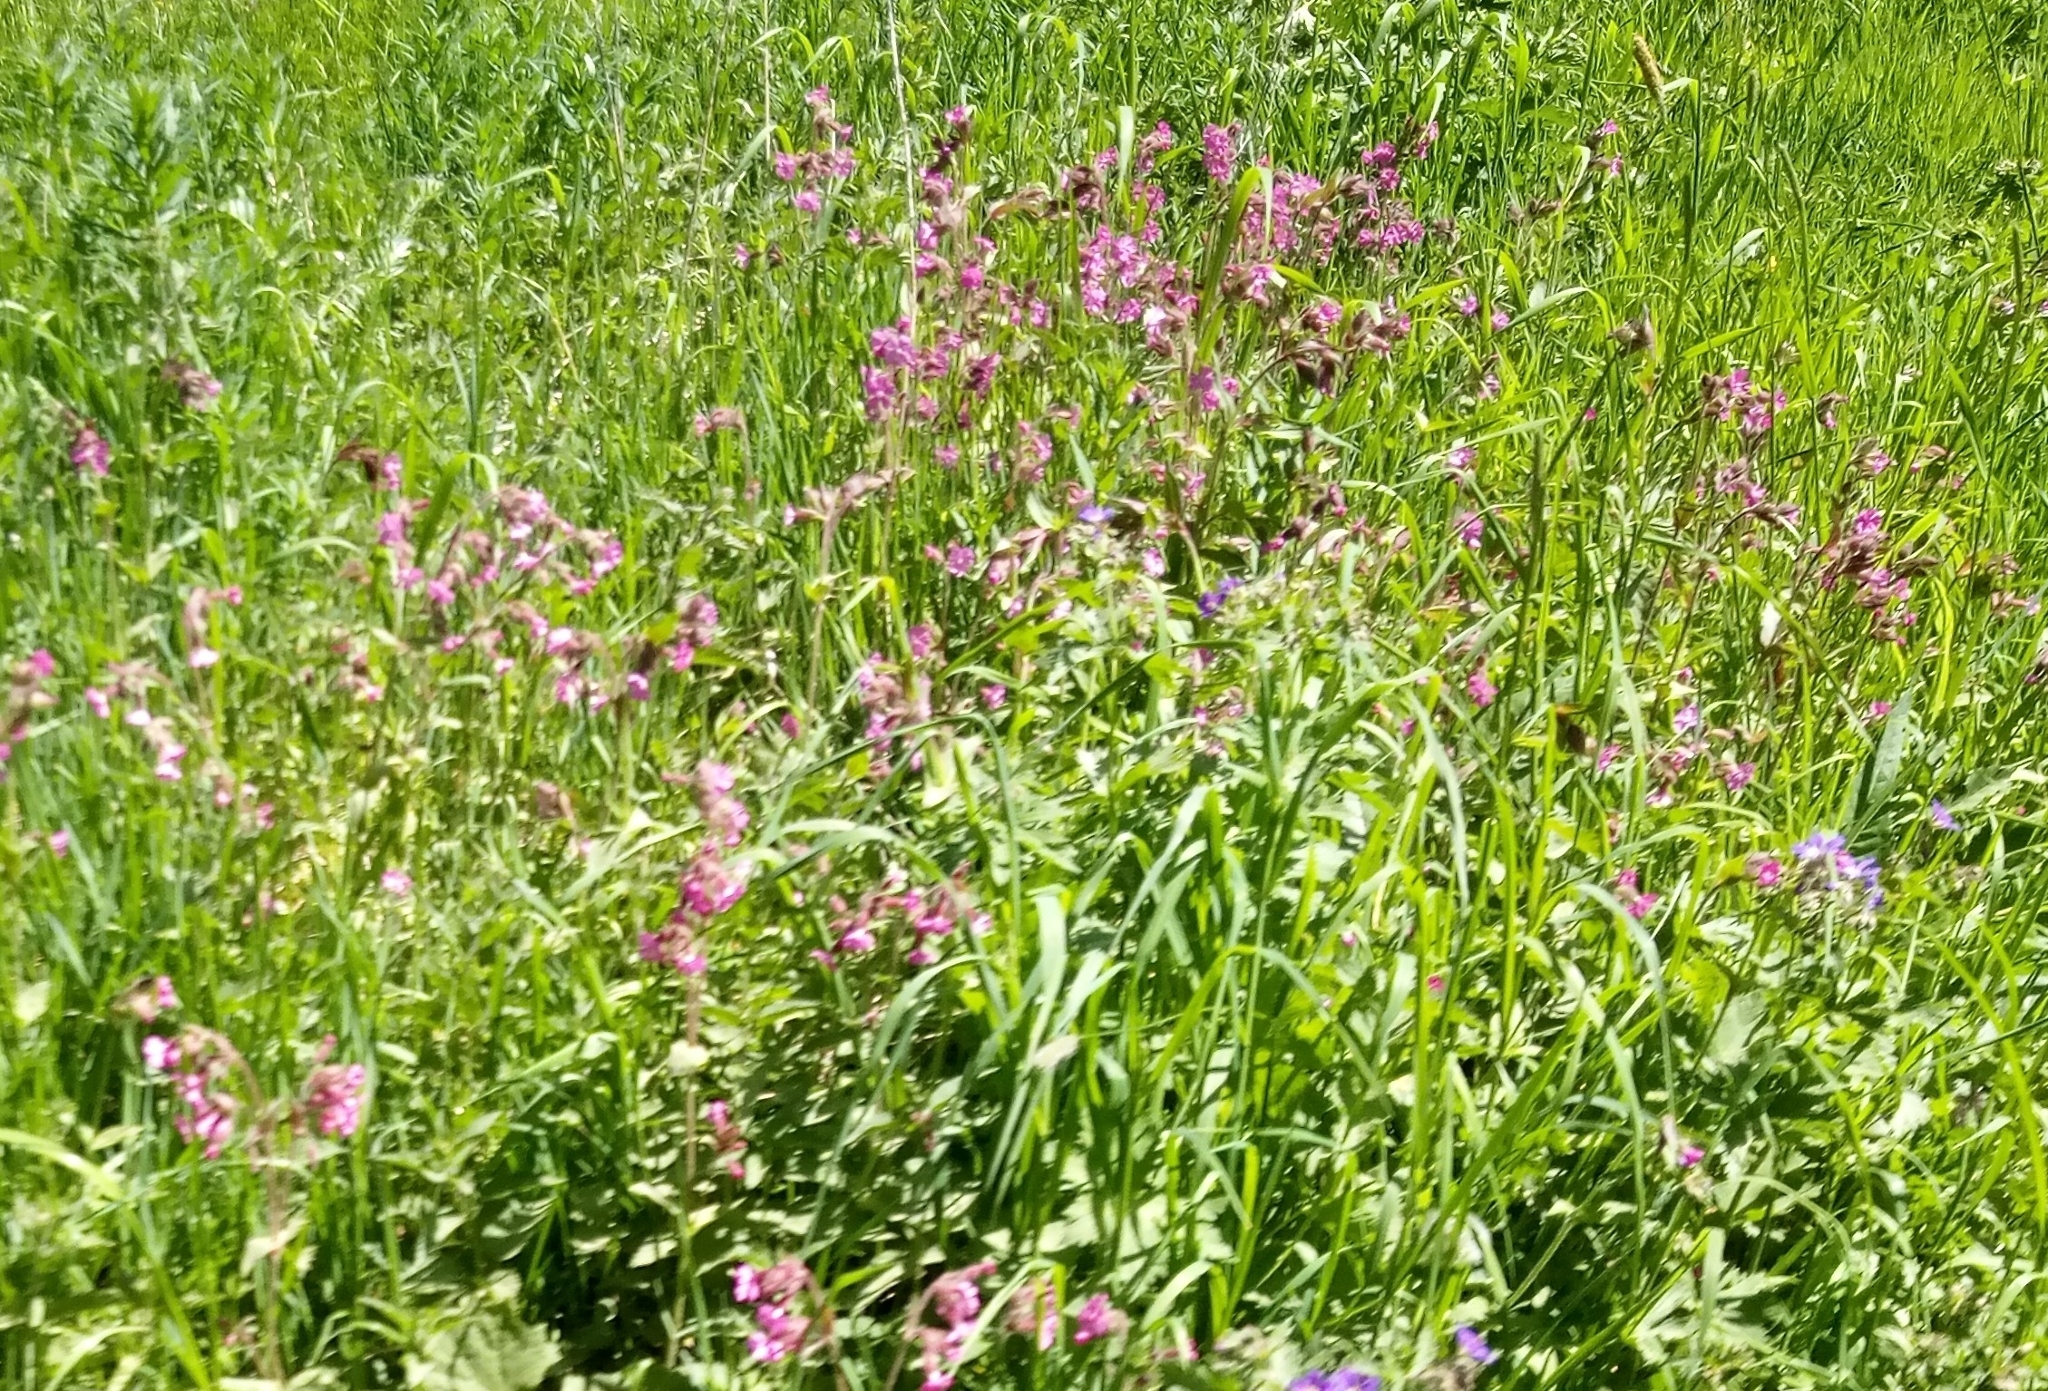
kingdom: Plantae
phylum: Tracheophyta
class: Magnoliopsida
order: Caryophyllales
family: Caryophyllaceae
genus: Silene
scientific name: Silene dioica
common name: Red campion
